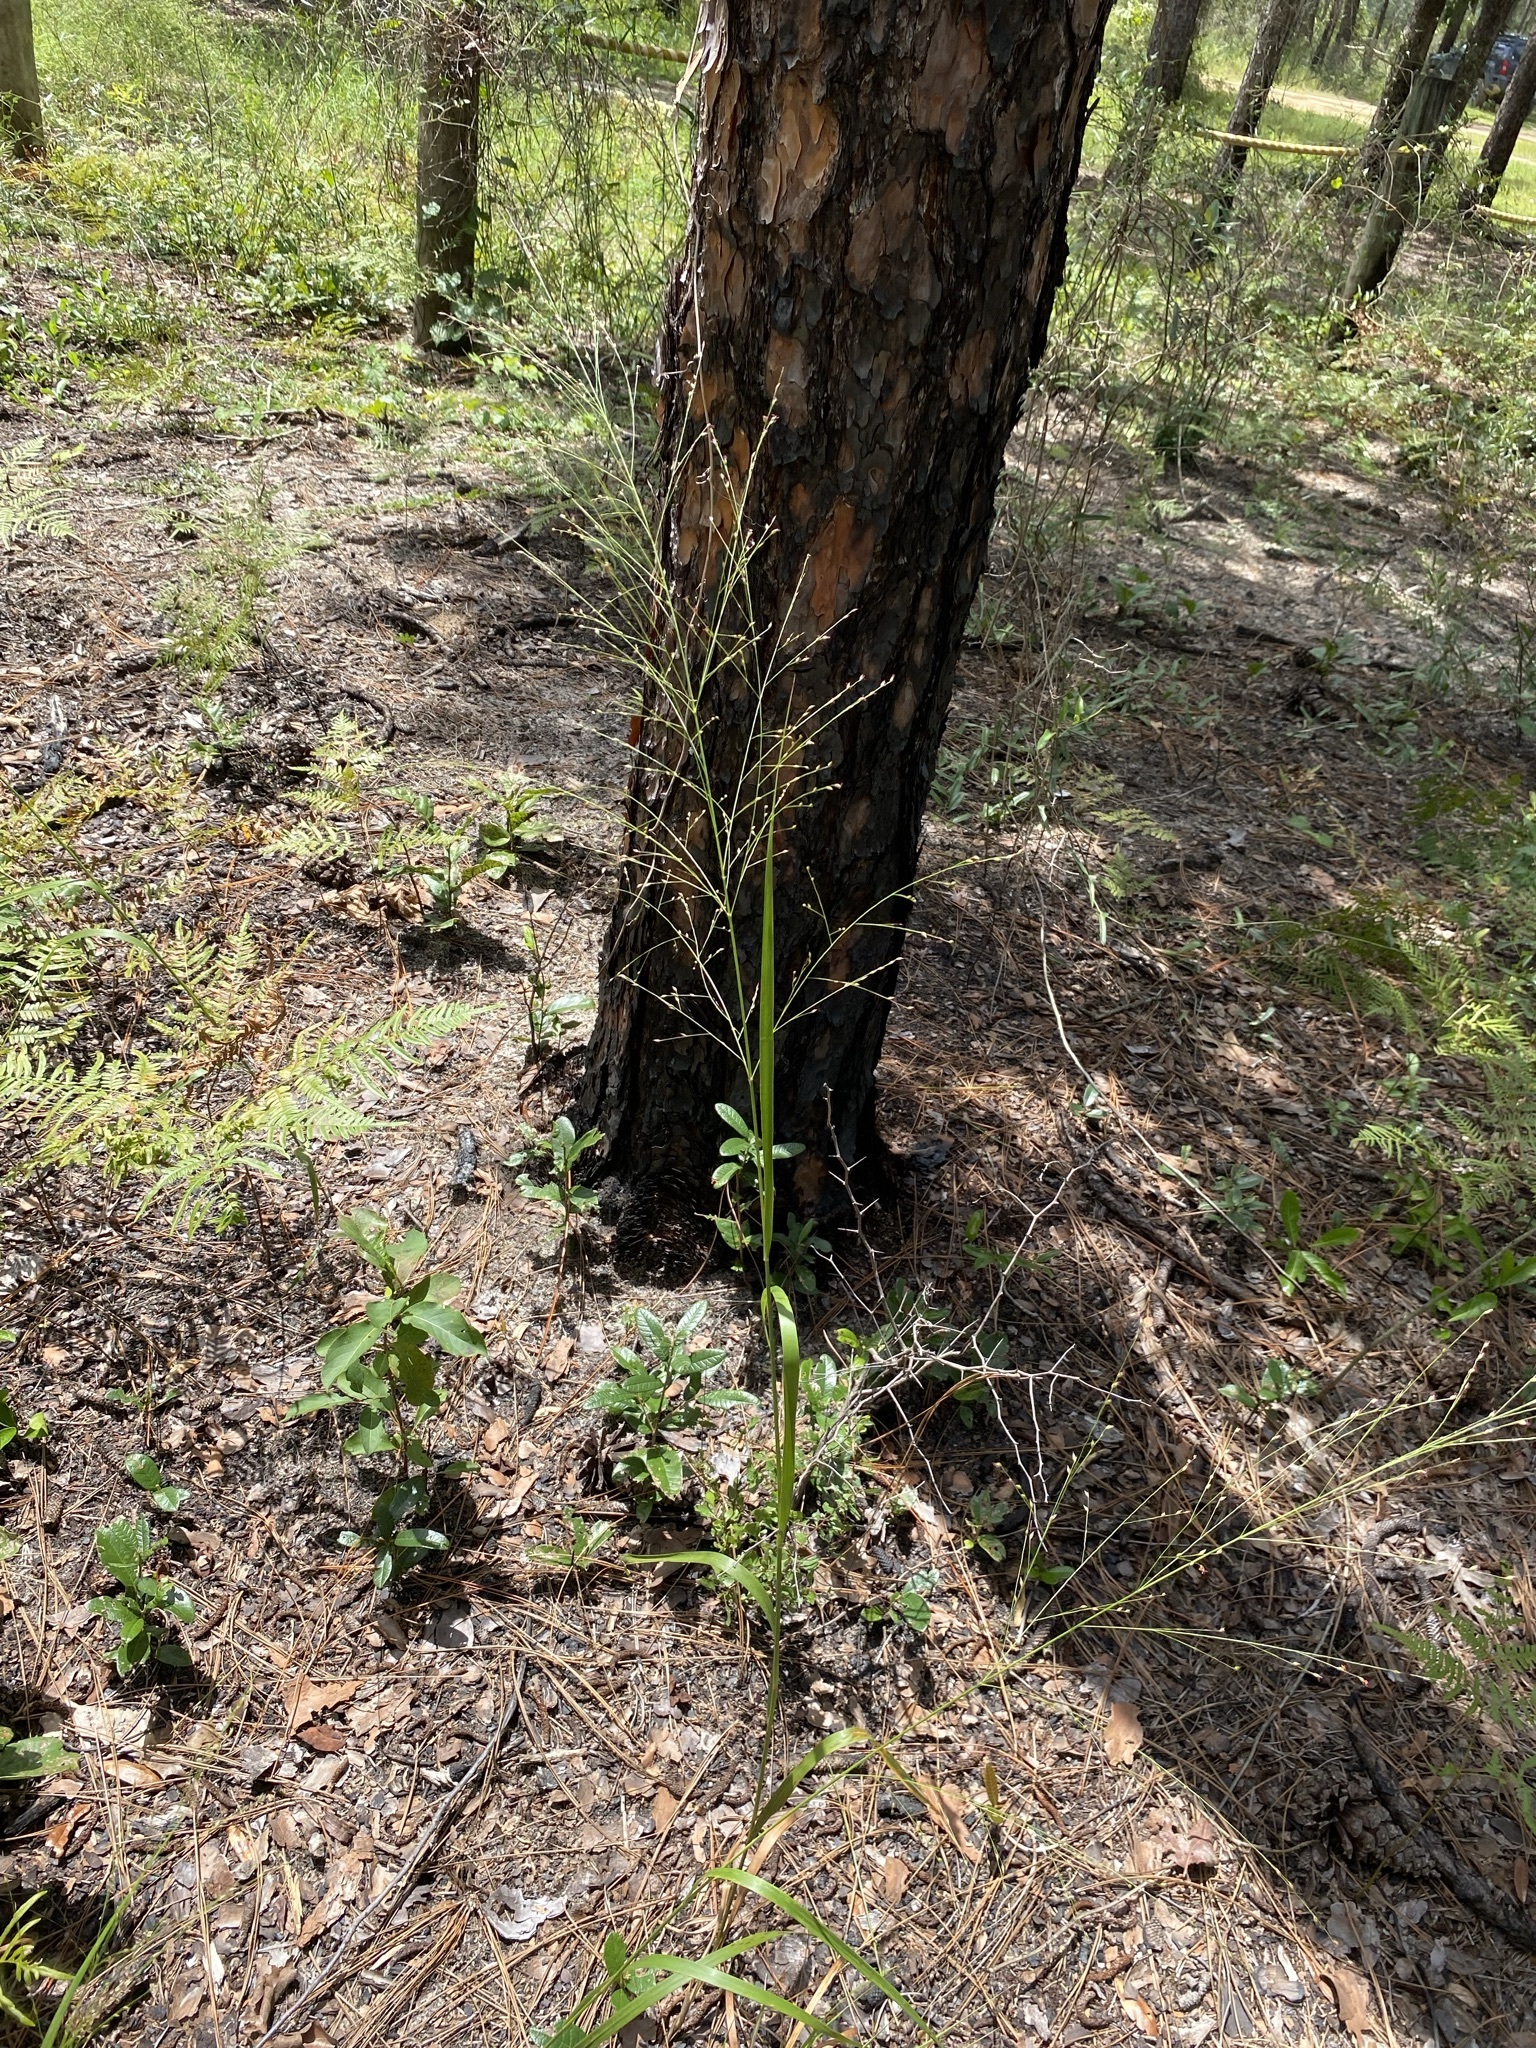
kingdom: Plantae
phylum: Tracheophyta
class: Liliopsida
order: Poales
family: Poaceae
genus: Panicum
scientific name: Panicum virgatum
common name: Switchgrass
